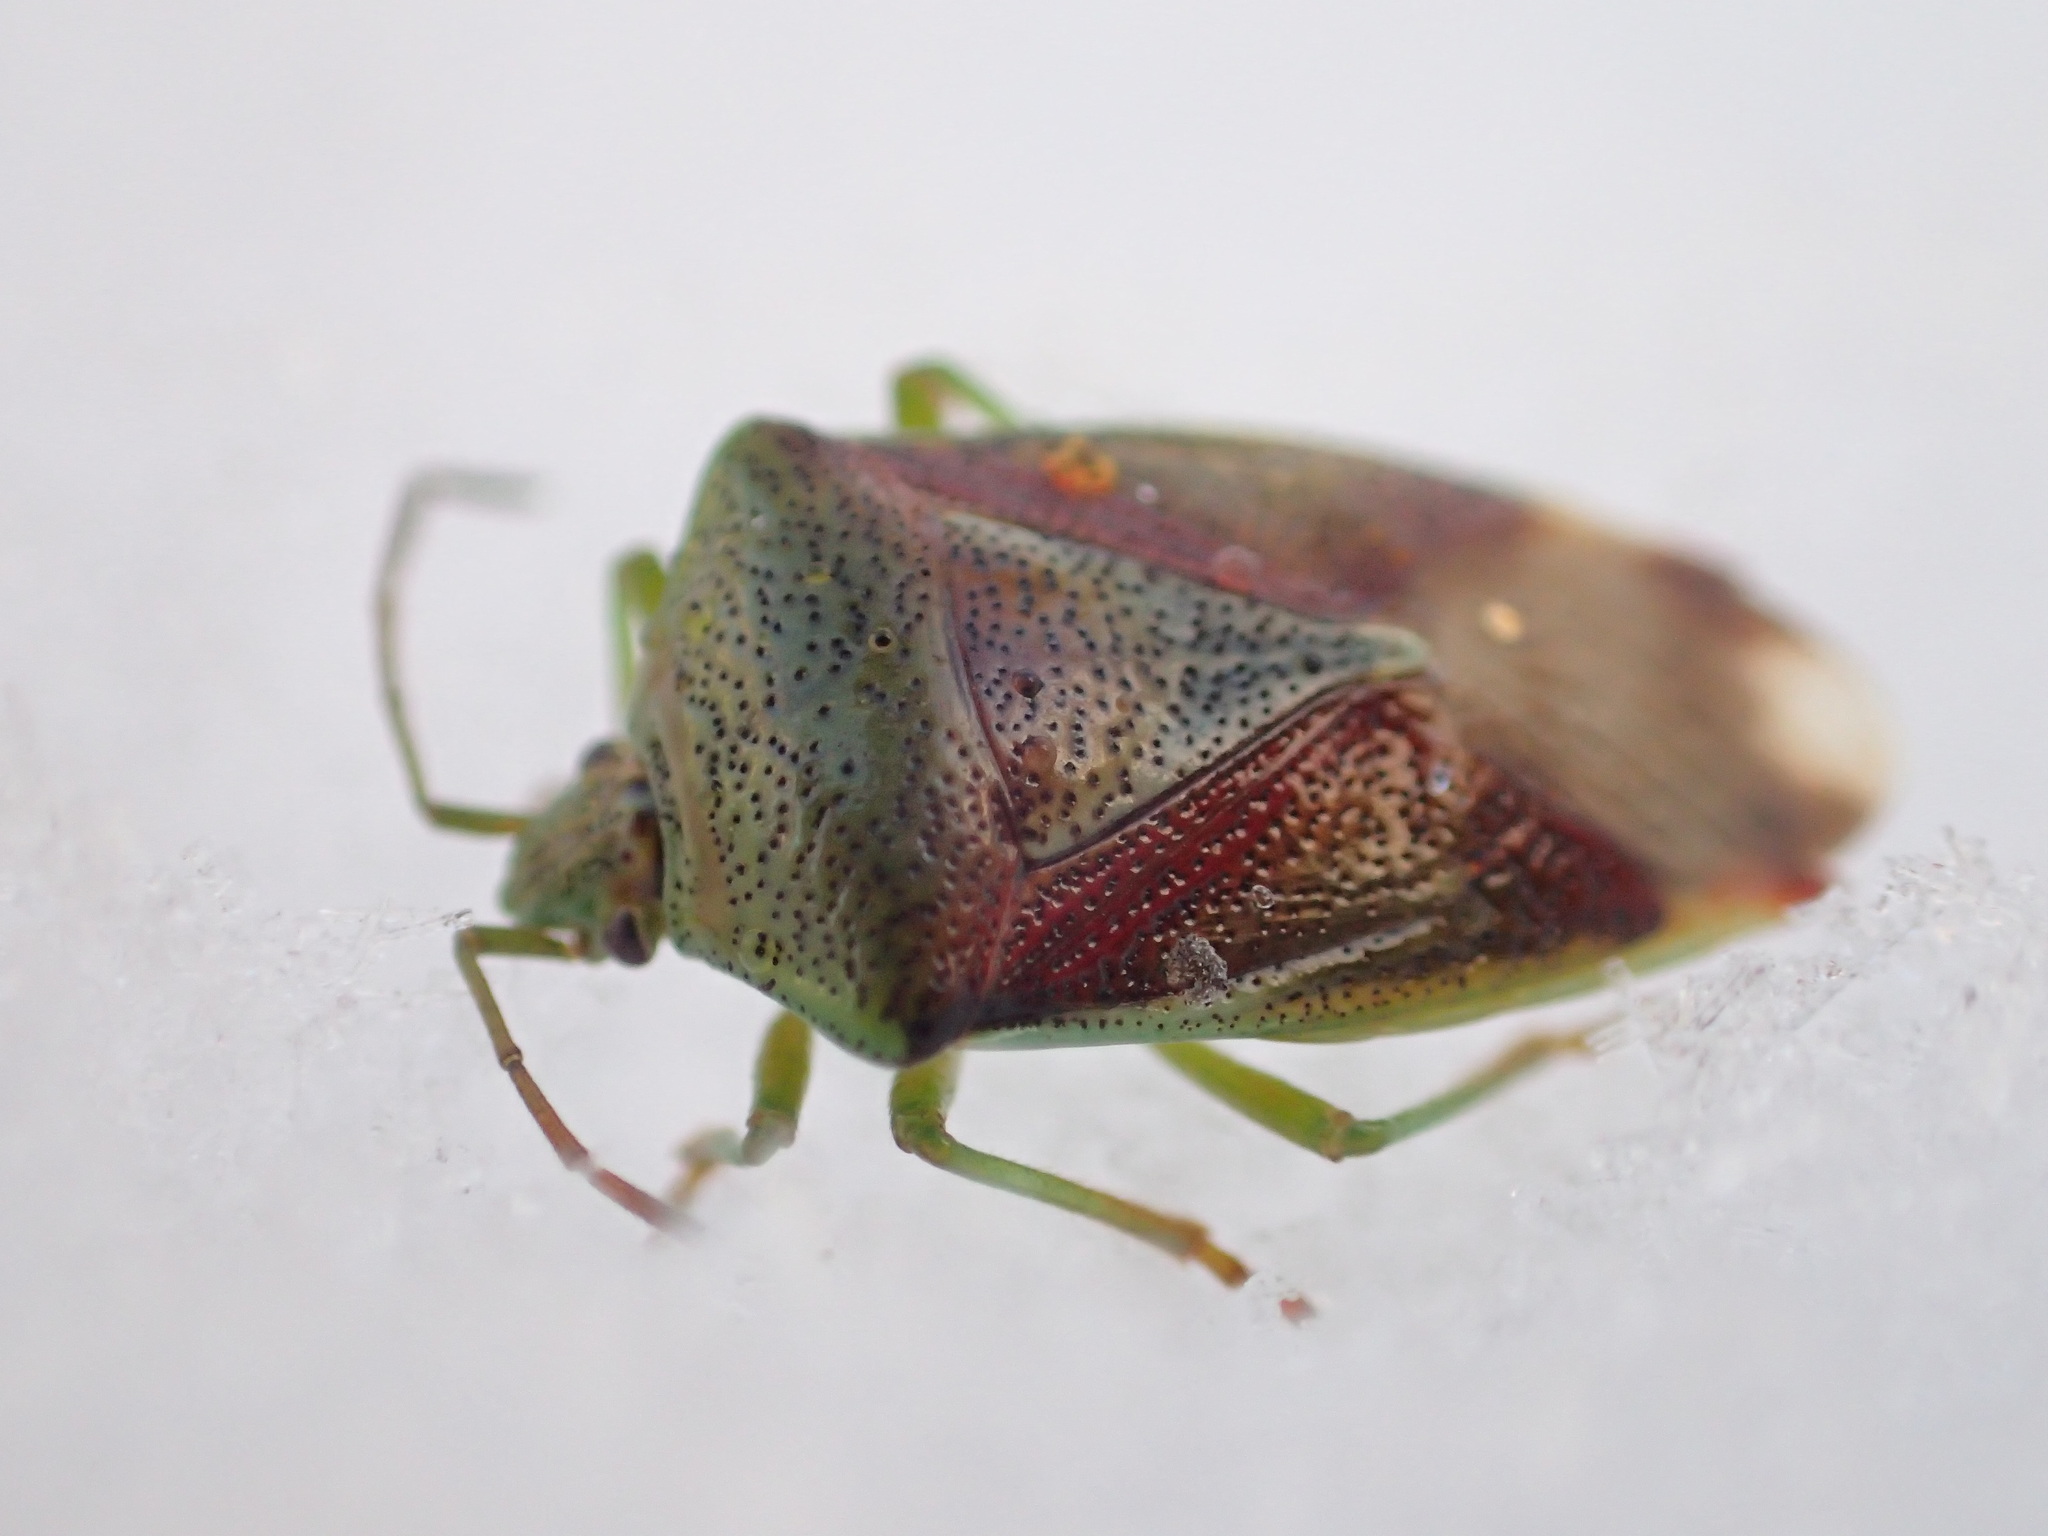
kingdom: Animalia
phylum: Arthropoda
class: Insecta
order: Hemiptera
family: Acanthosomatidae
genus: Elasmostethus
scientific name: Elasmostethus interstinctus
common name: Birch shieldbug
